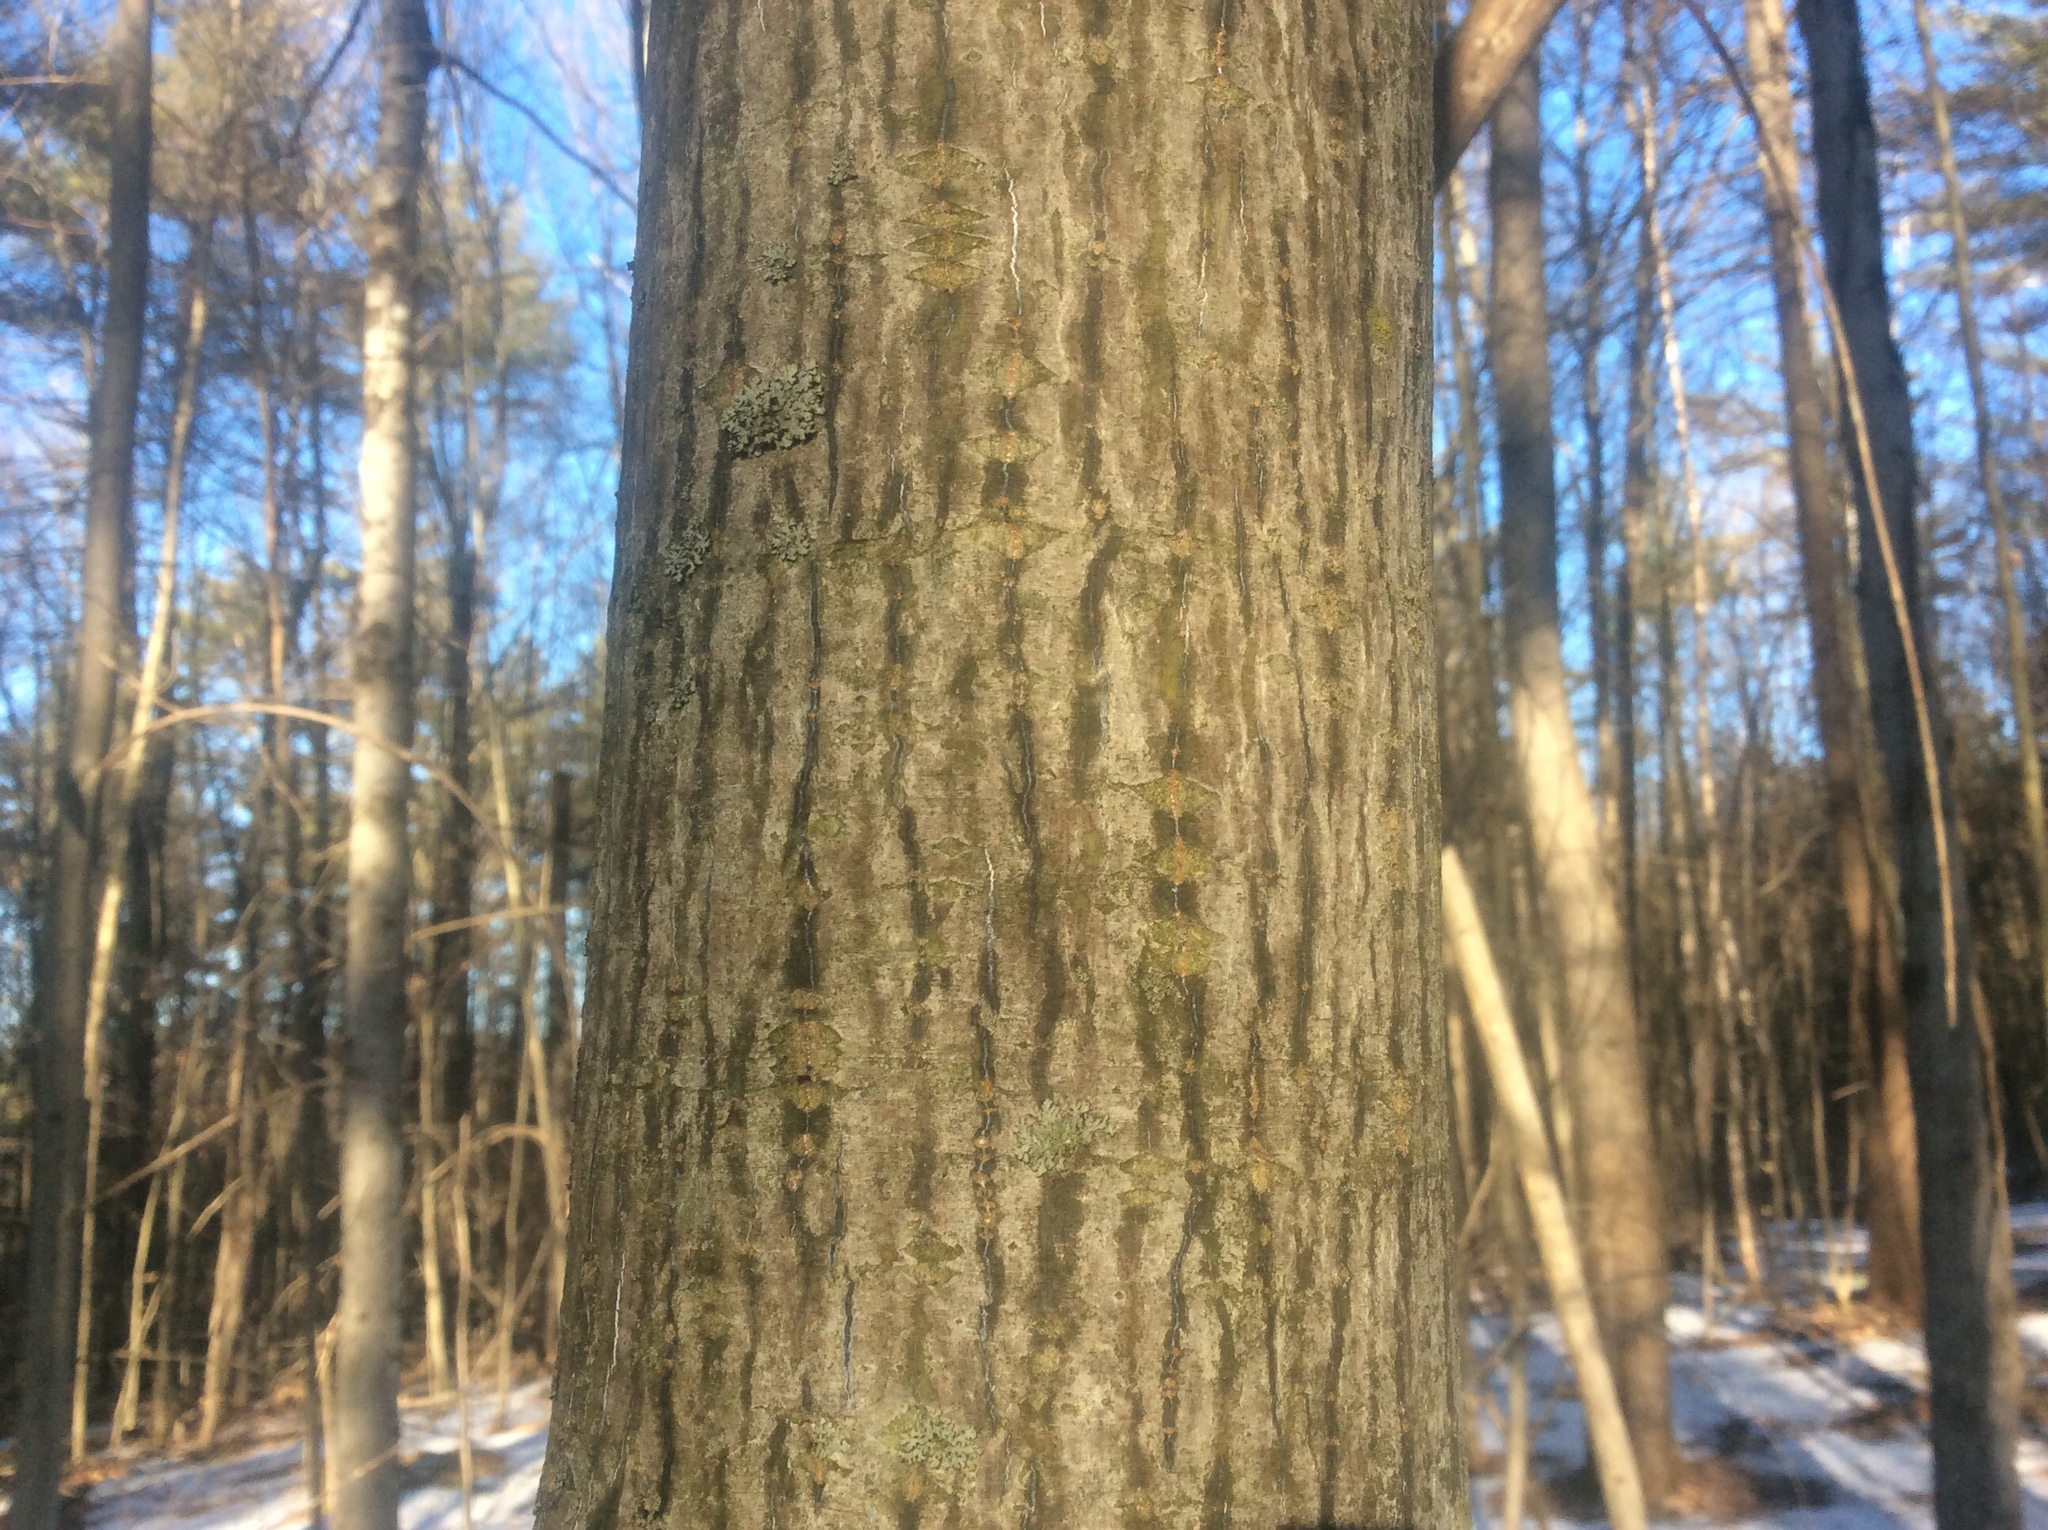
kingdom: Plantae
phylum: Tracheophyta
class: Magnoliopsida
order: Sapindales
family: Sapindaceae
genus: Acer
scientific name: Acer pensylvanicum
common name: Moosewood
